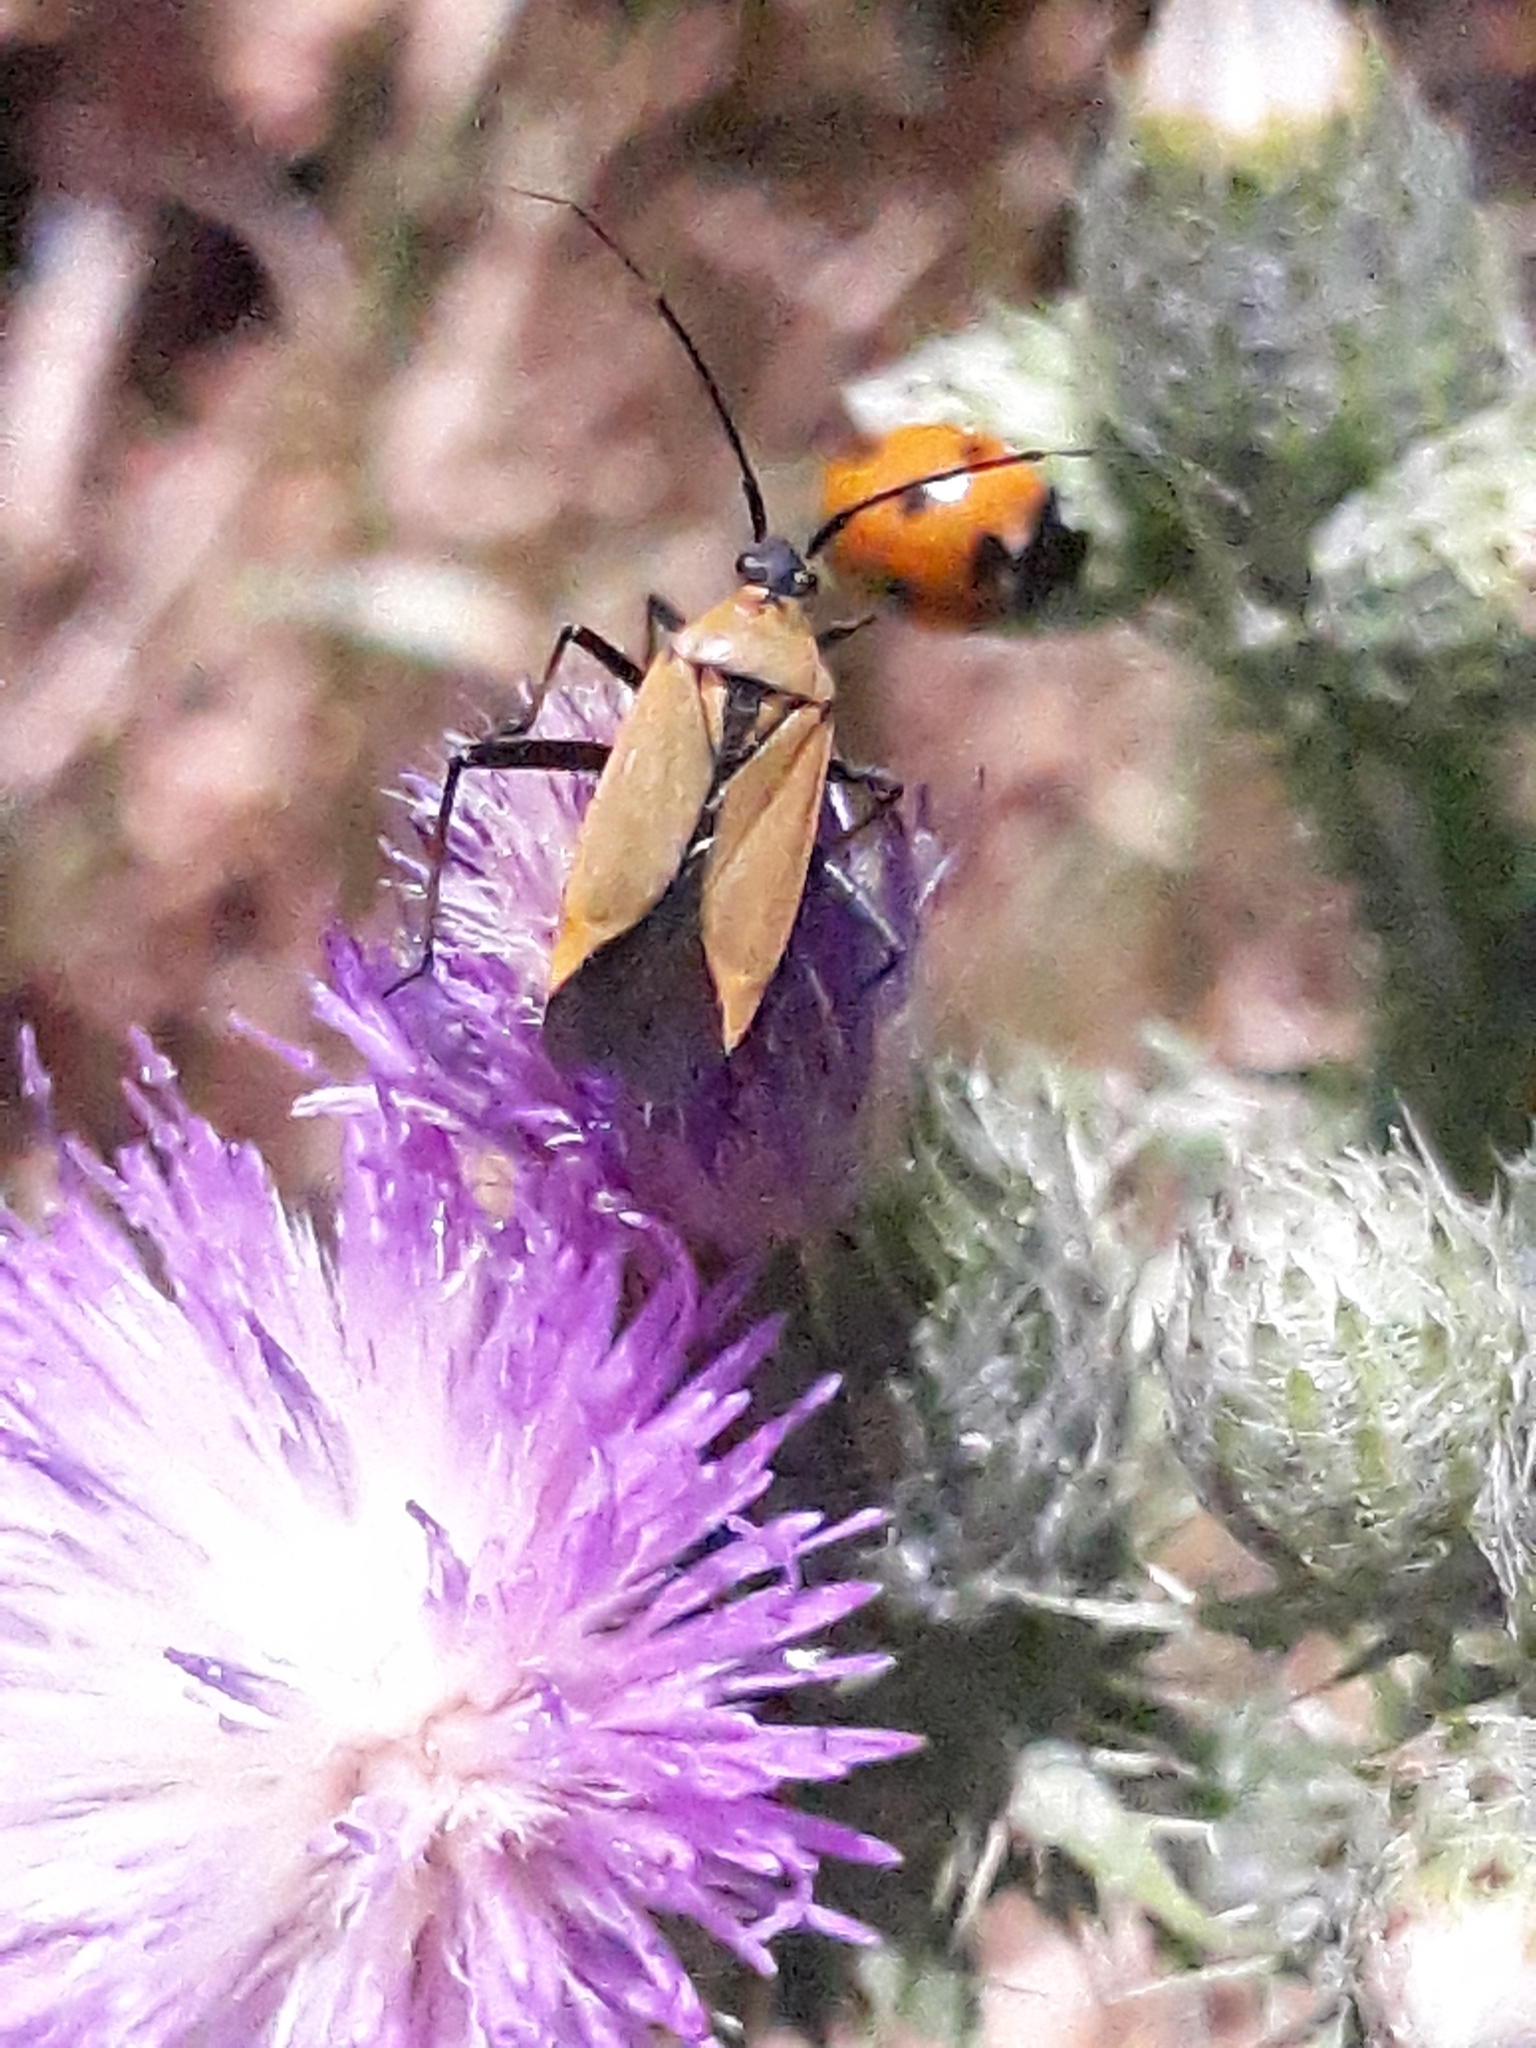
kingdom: Animalia
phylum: Arthropoda
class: Insecta
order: Hemiptera
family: Miridae
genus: Calocoris
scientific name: Calocoris nemoralis
